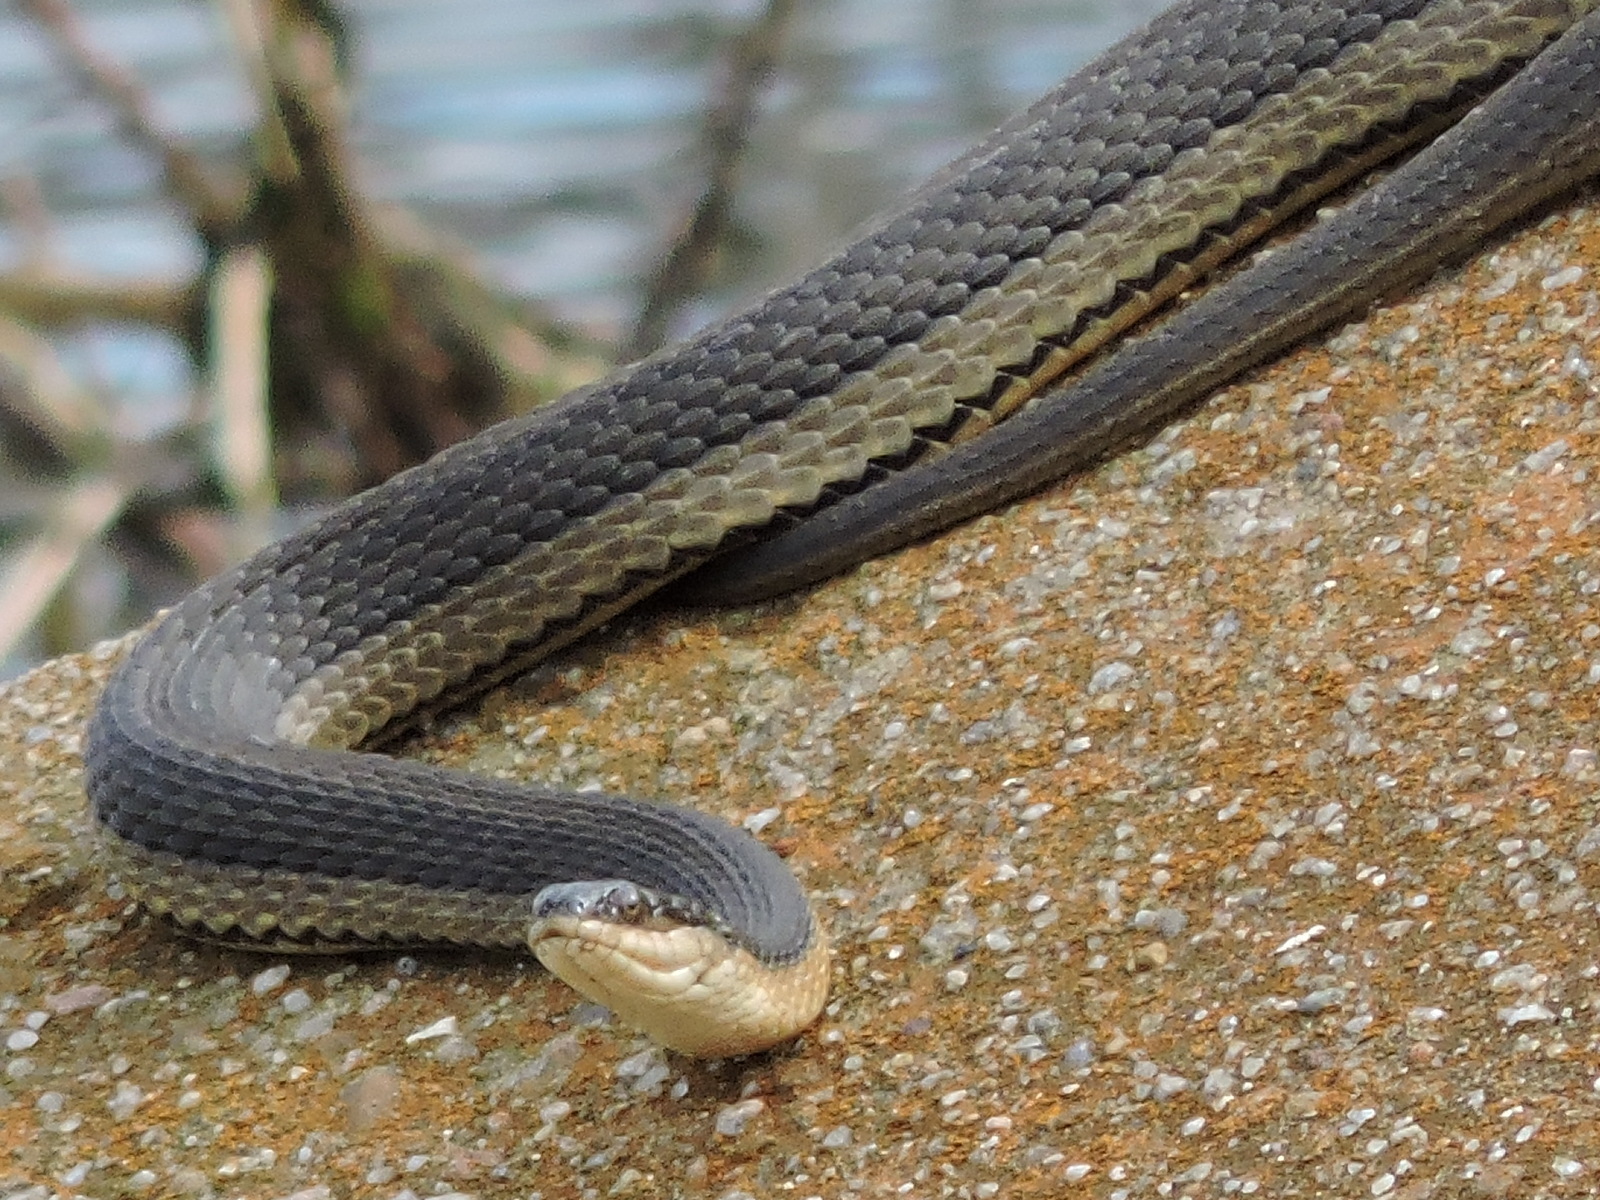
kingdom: Animalia
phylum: Chordata
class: Squamata
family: Colubridae
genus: Regina
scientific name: Regina grahamii
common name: Graham's crayfish snake
